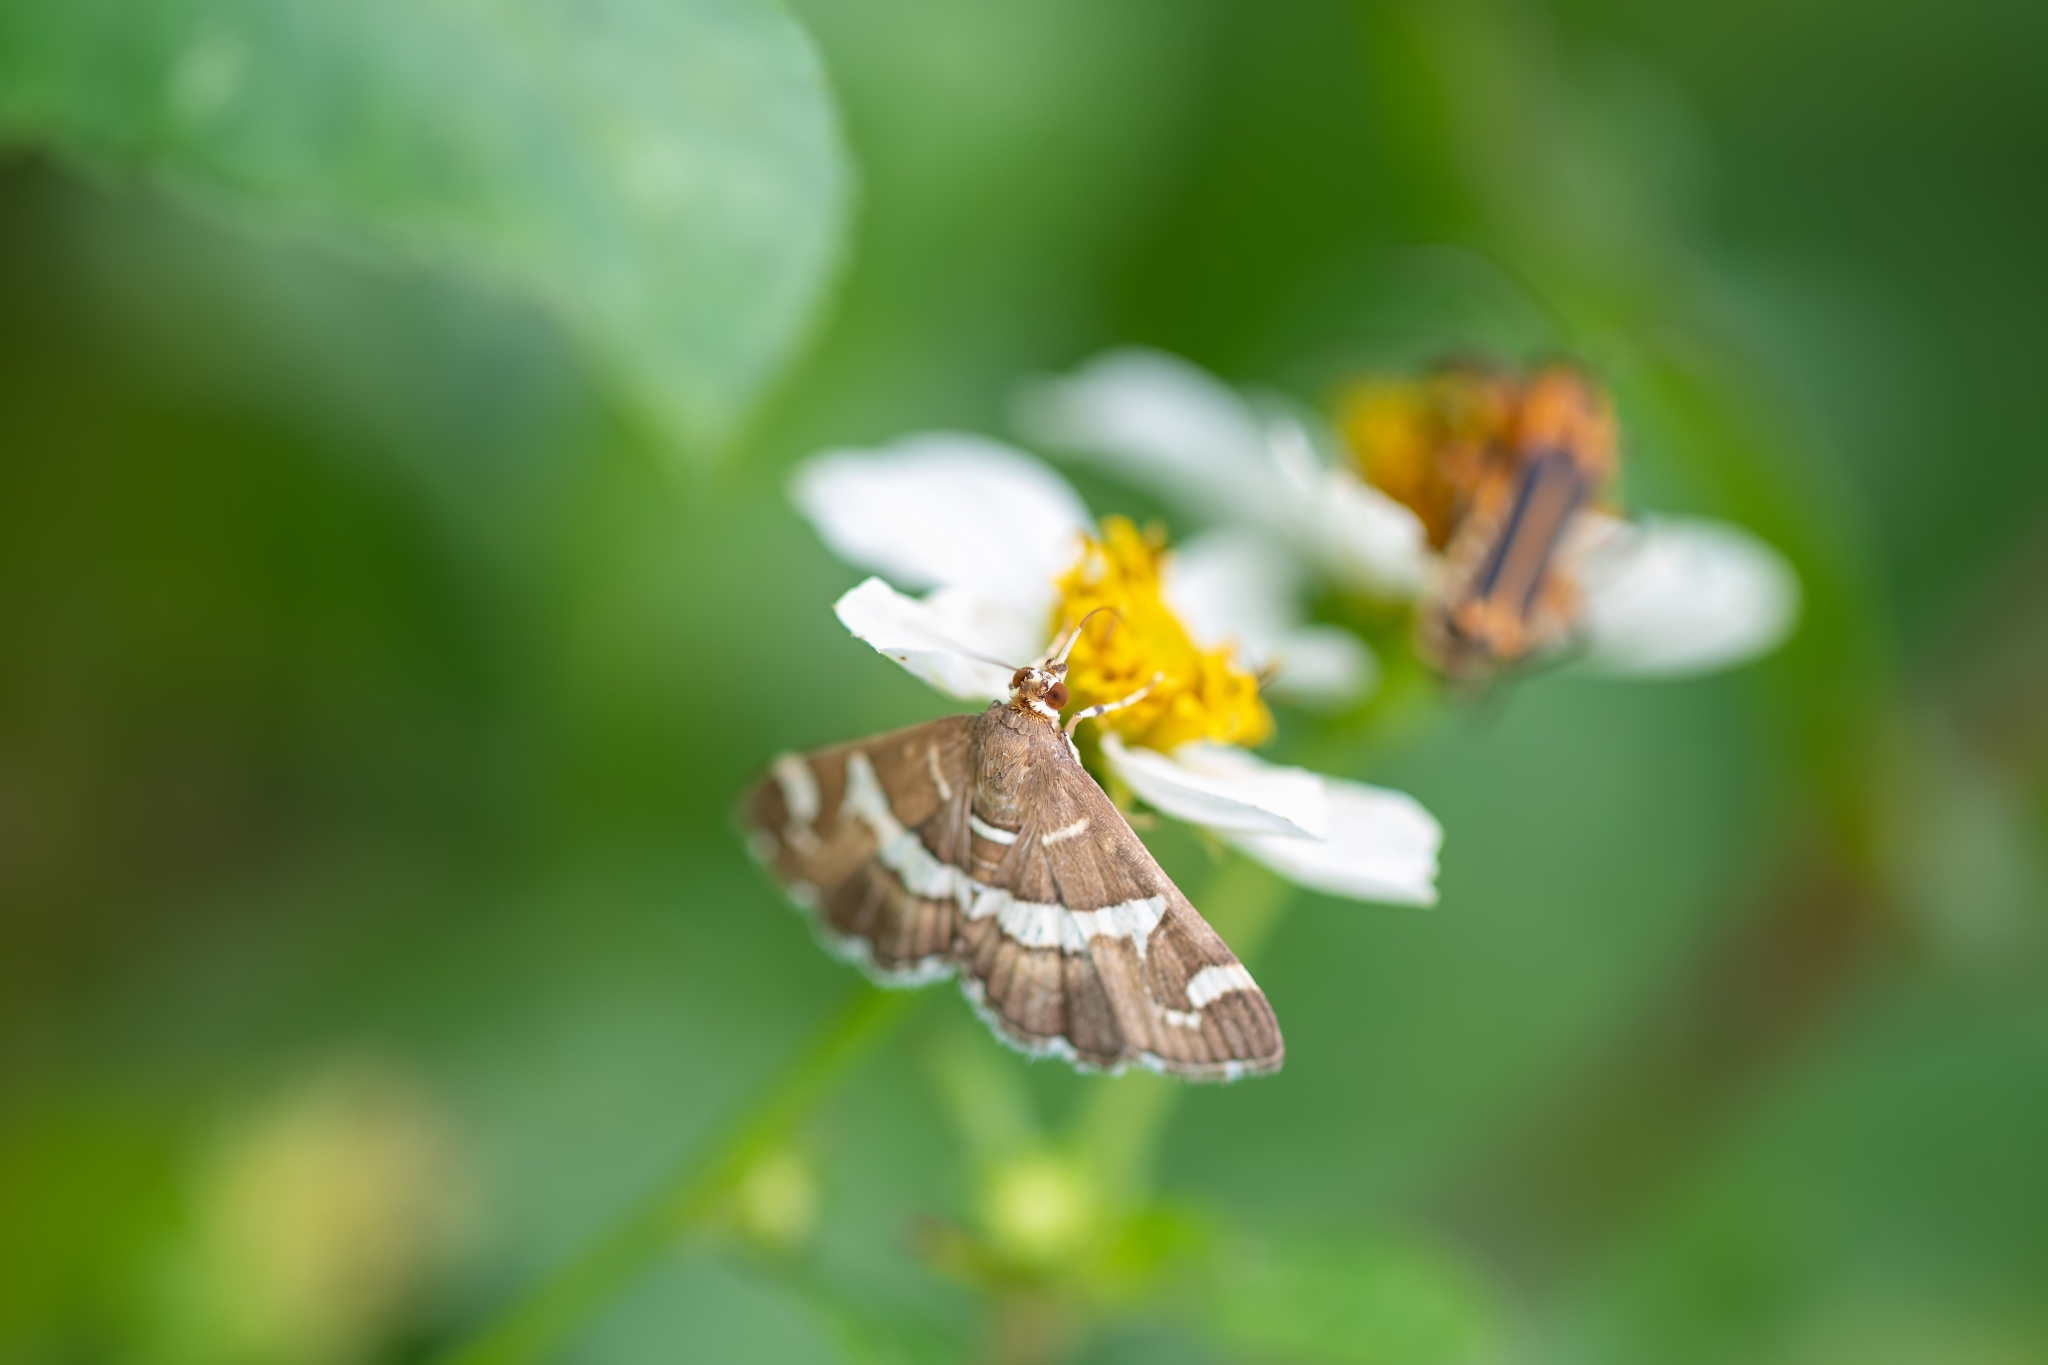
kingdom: Animalia
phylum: Arthropoda
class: Insecta
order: Lepidoptera
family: Crambidae
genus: Spoladea
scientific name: Spoladea recurvalis
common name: Beet webworm moth
